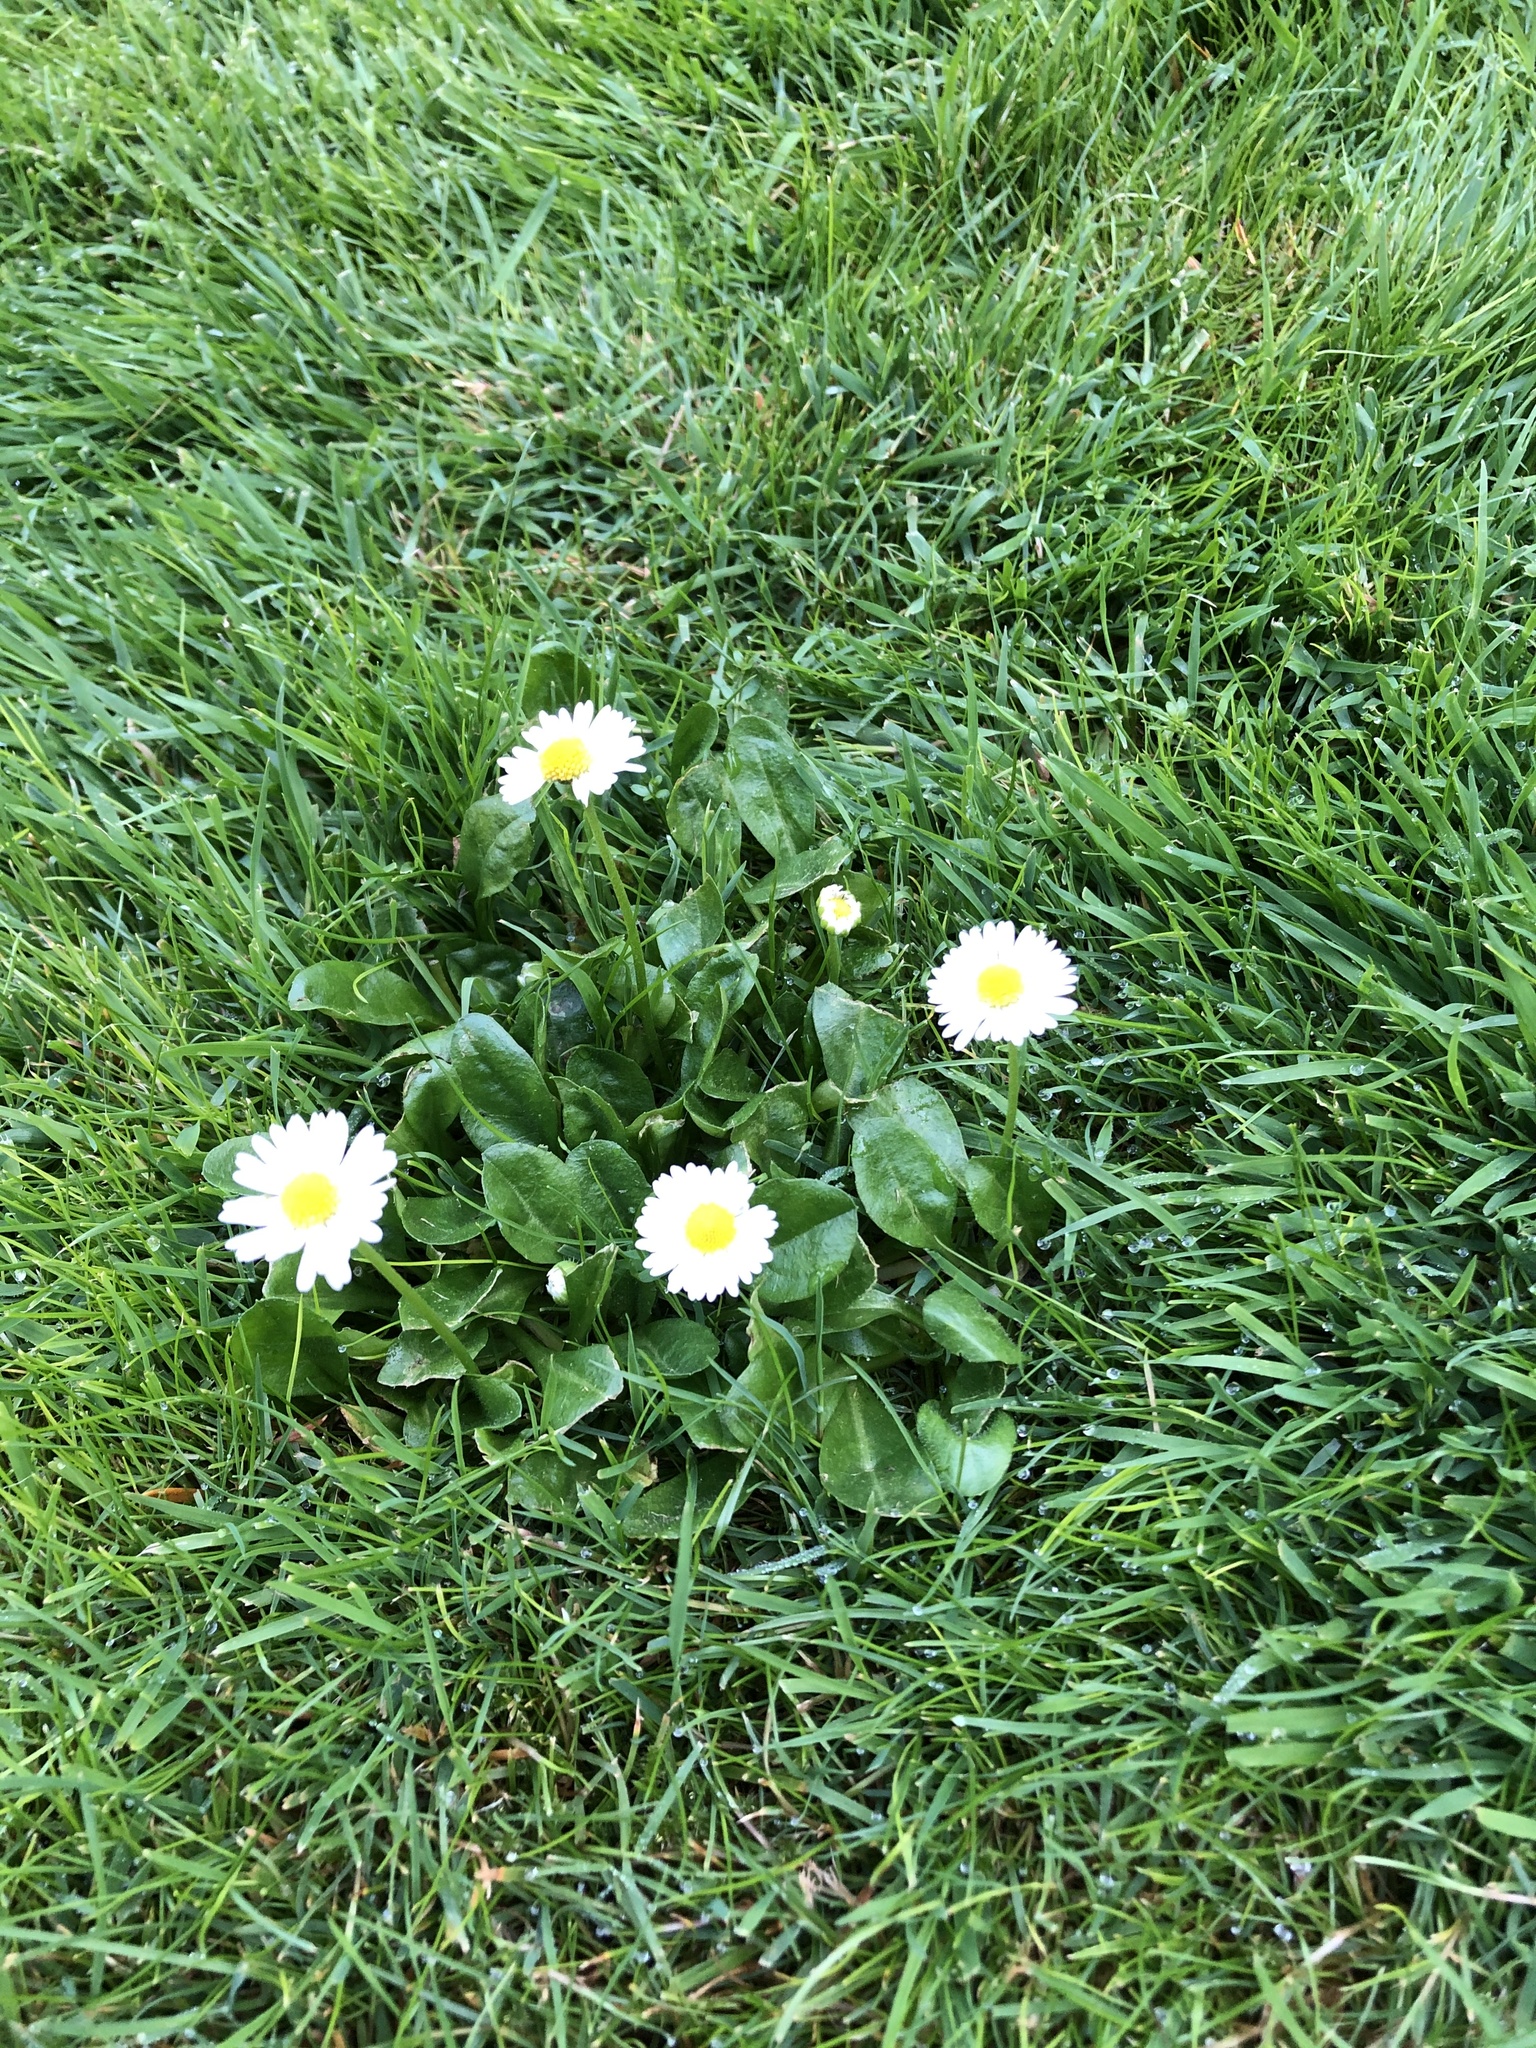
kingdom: Plantae
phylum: Tracheophyta
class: Magnoliopsida
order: Asterales
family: Asteraceae
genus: Bellis
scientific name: Bellis perennis
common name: Lawndaisy
